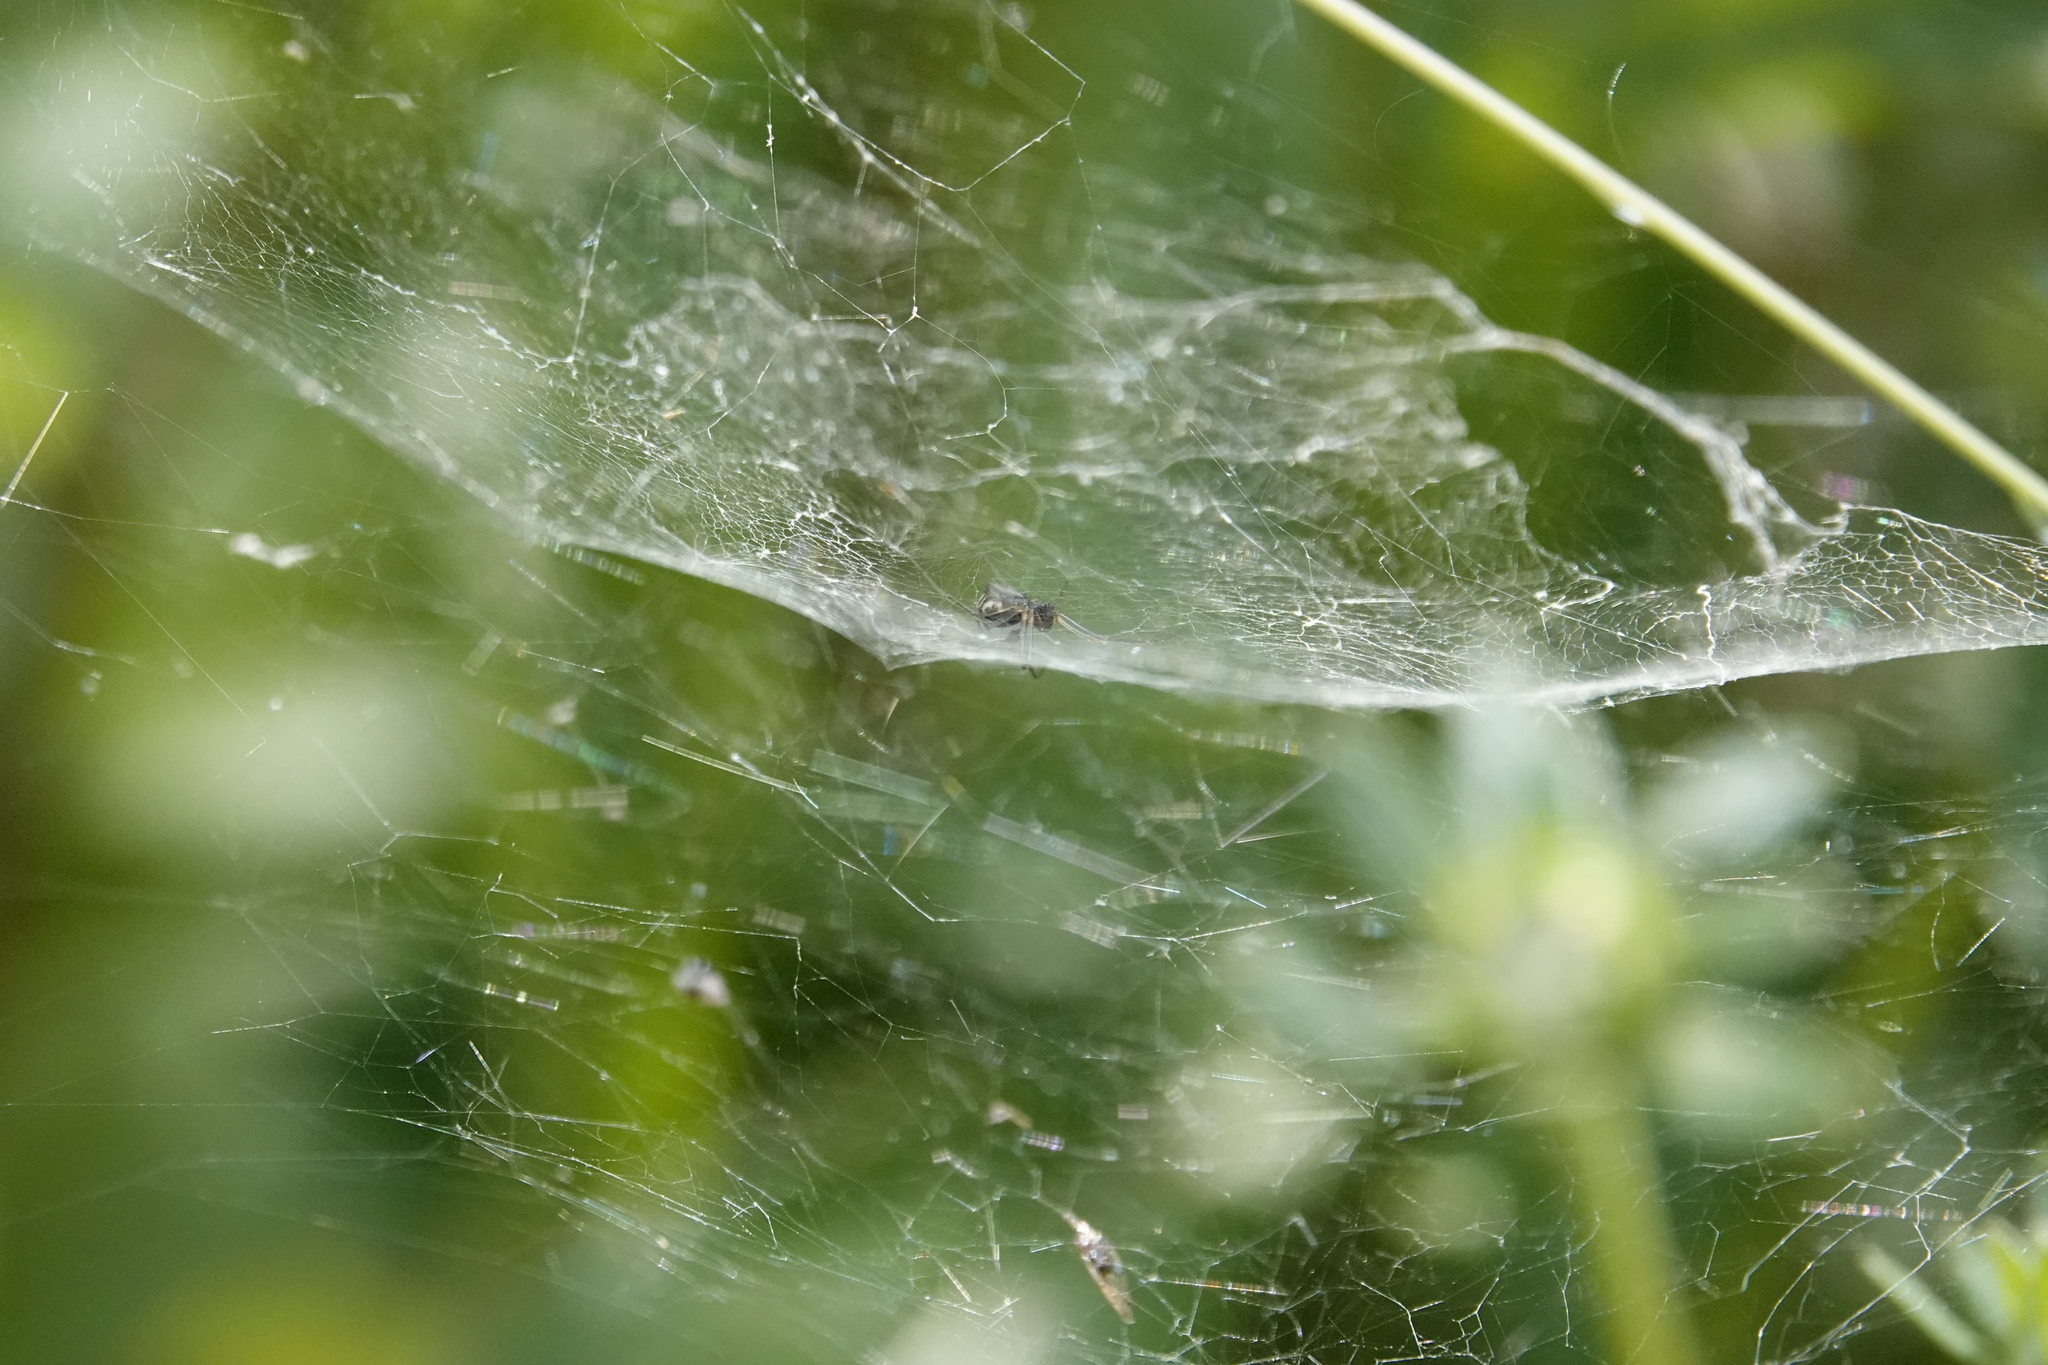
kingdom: Animalia
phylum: Arthropoda
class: Arachnida
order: Araneae
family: Linyphiidae
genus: Frontinella
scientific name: Frontinella pyramitela
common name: Bowl-and-doily spider
